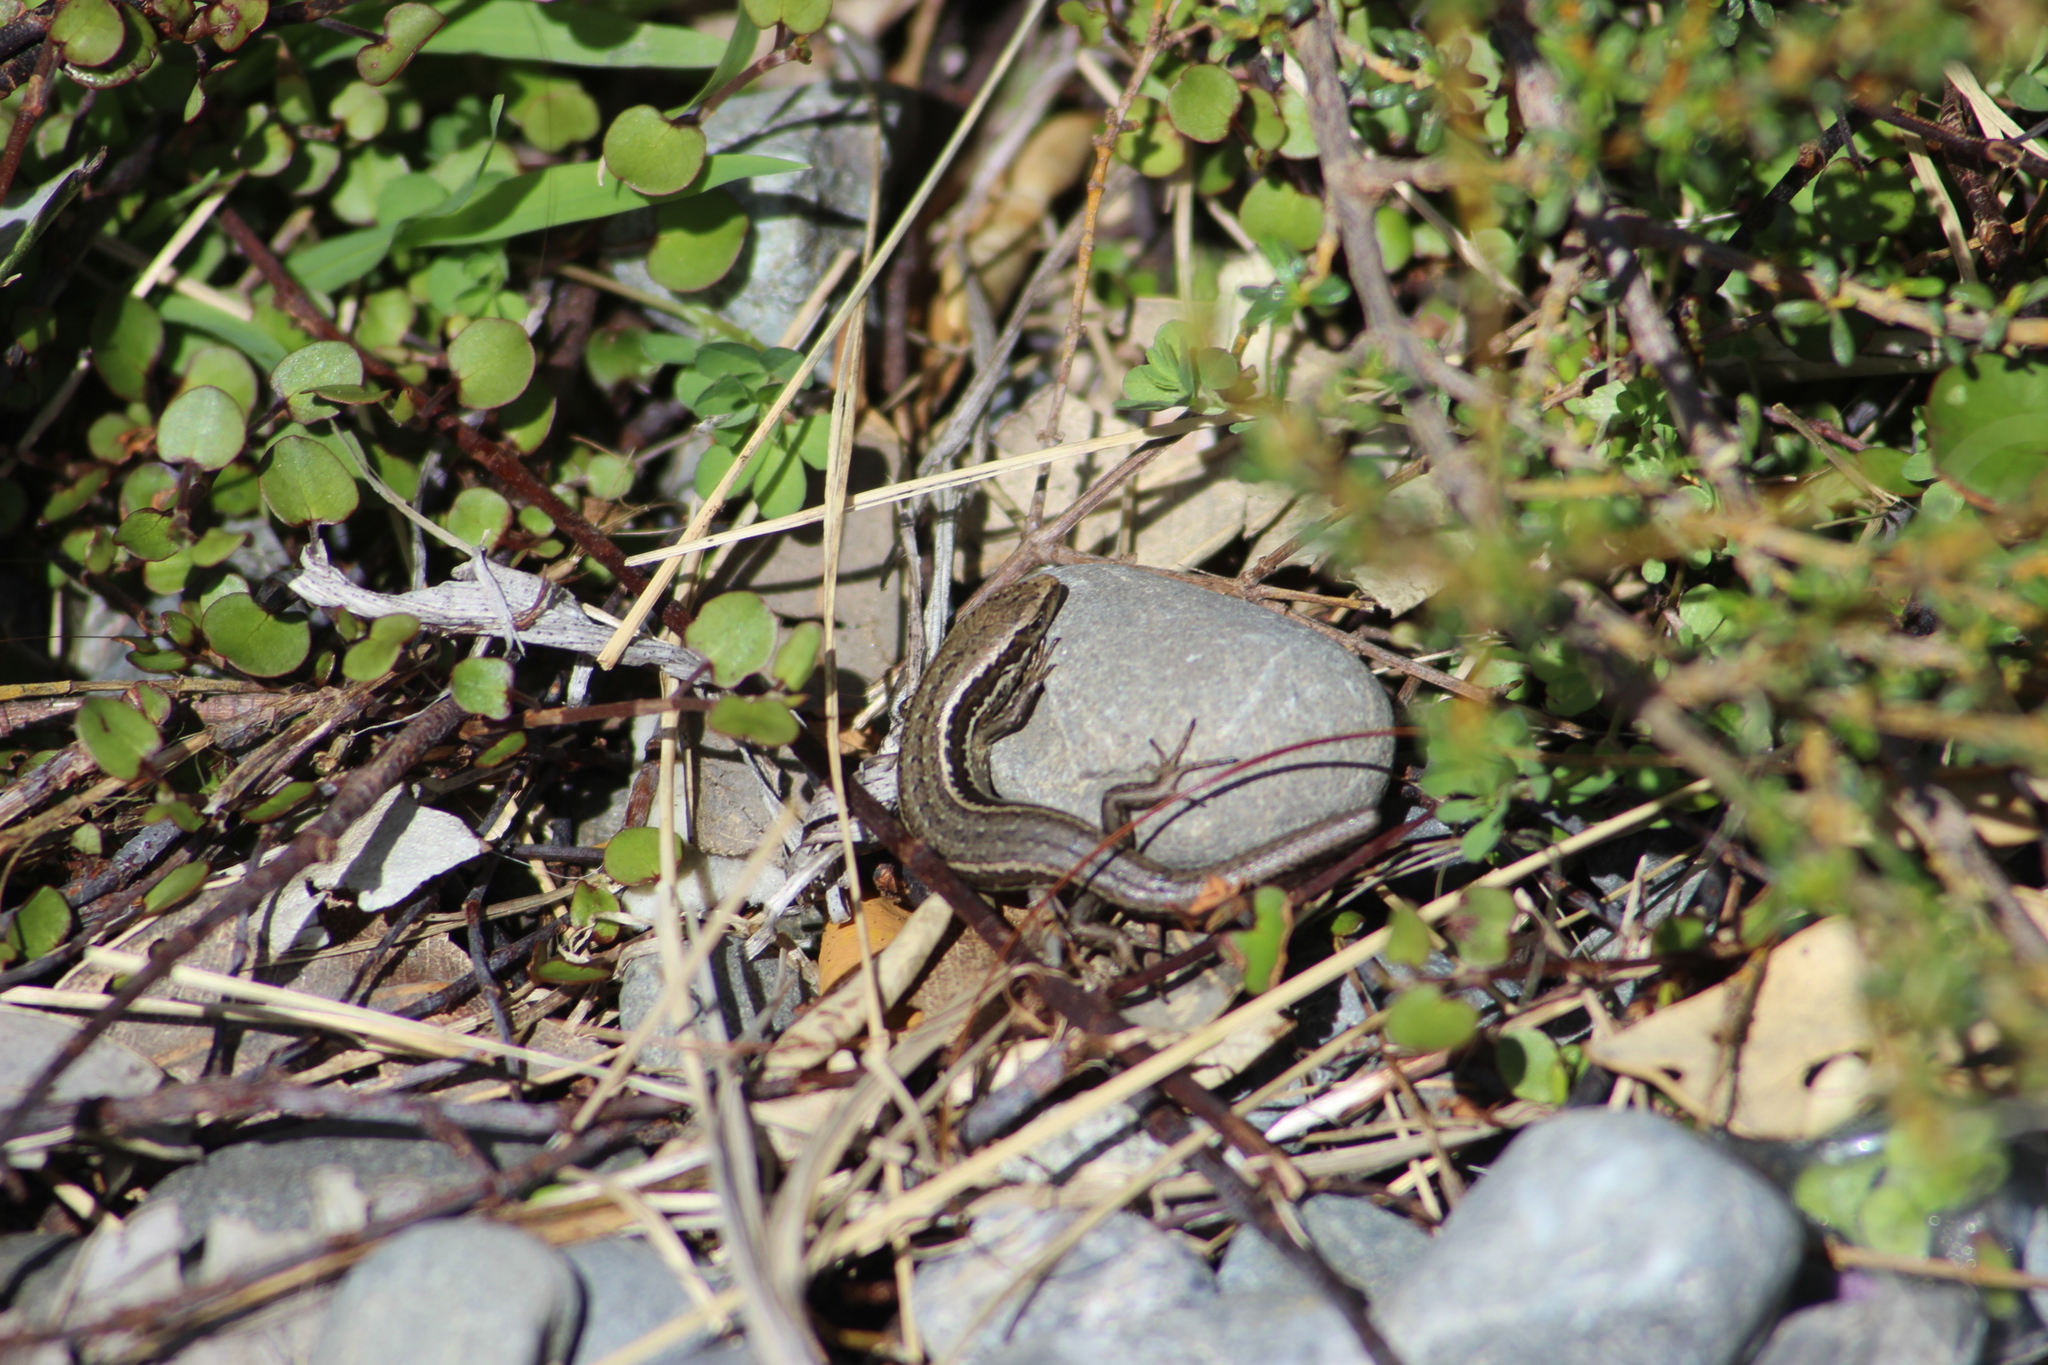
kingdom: Animalia
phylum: Chordata
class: Squamata
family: Scincidae
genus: Oligosoma
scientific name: Oligosoma polychroma
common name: Common new zealand skink
